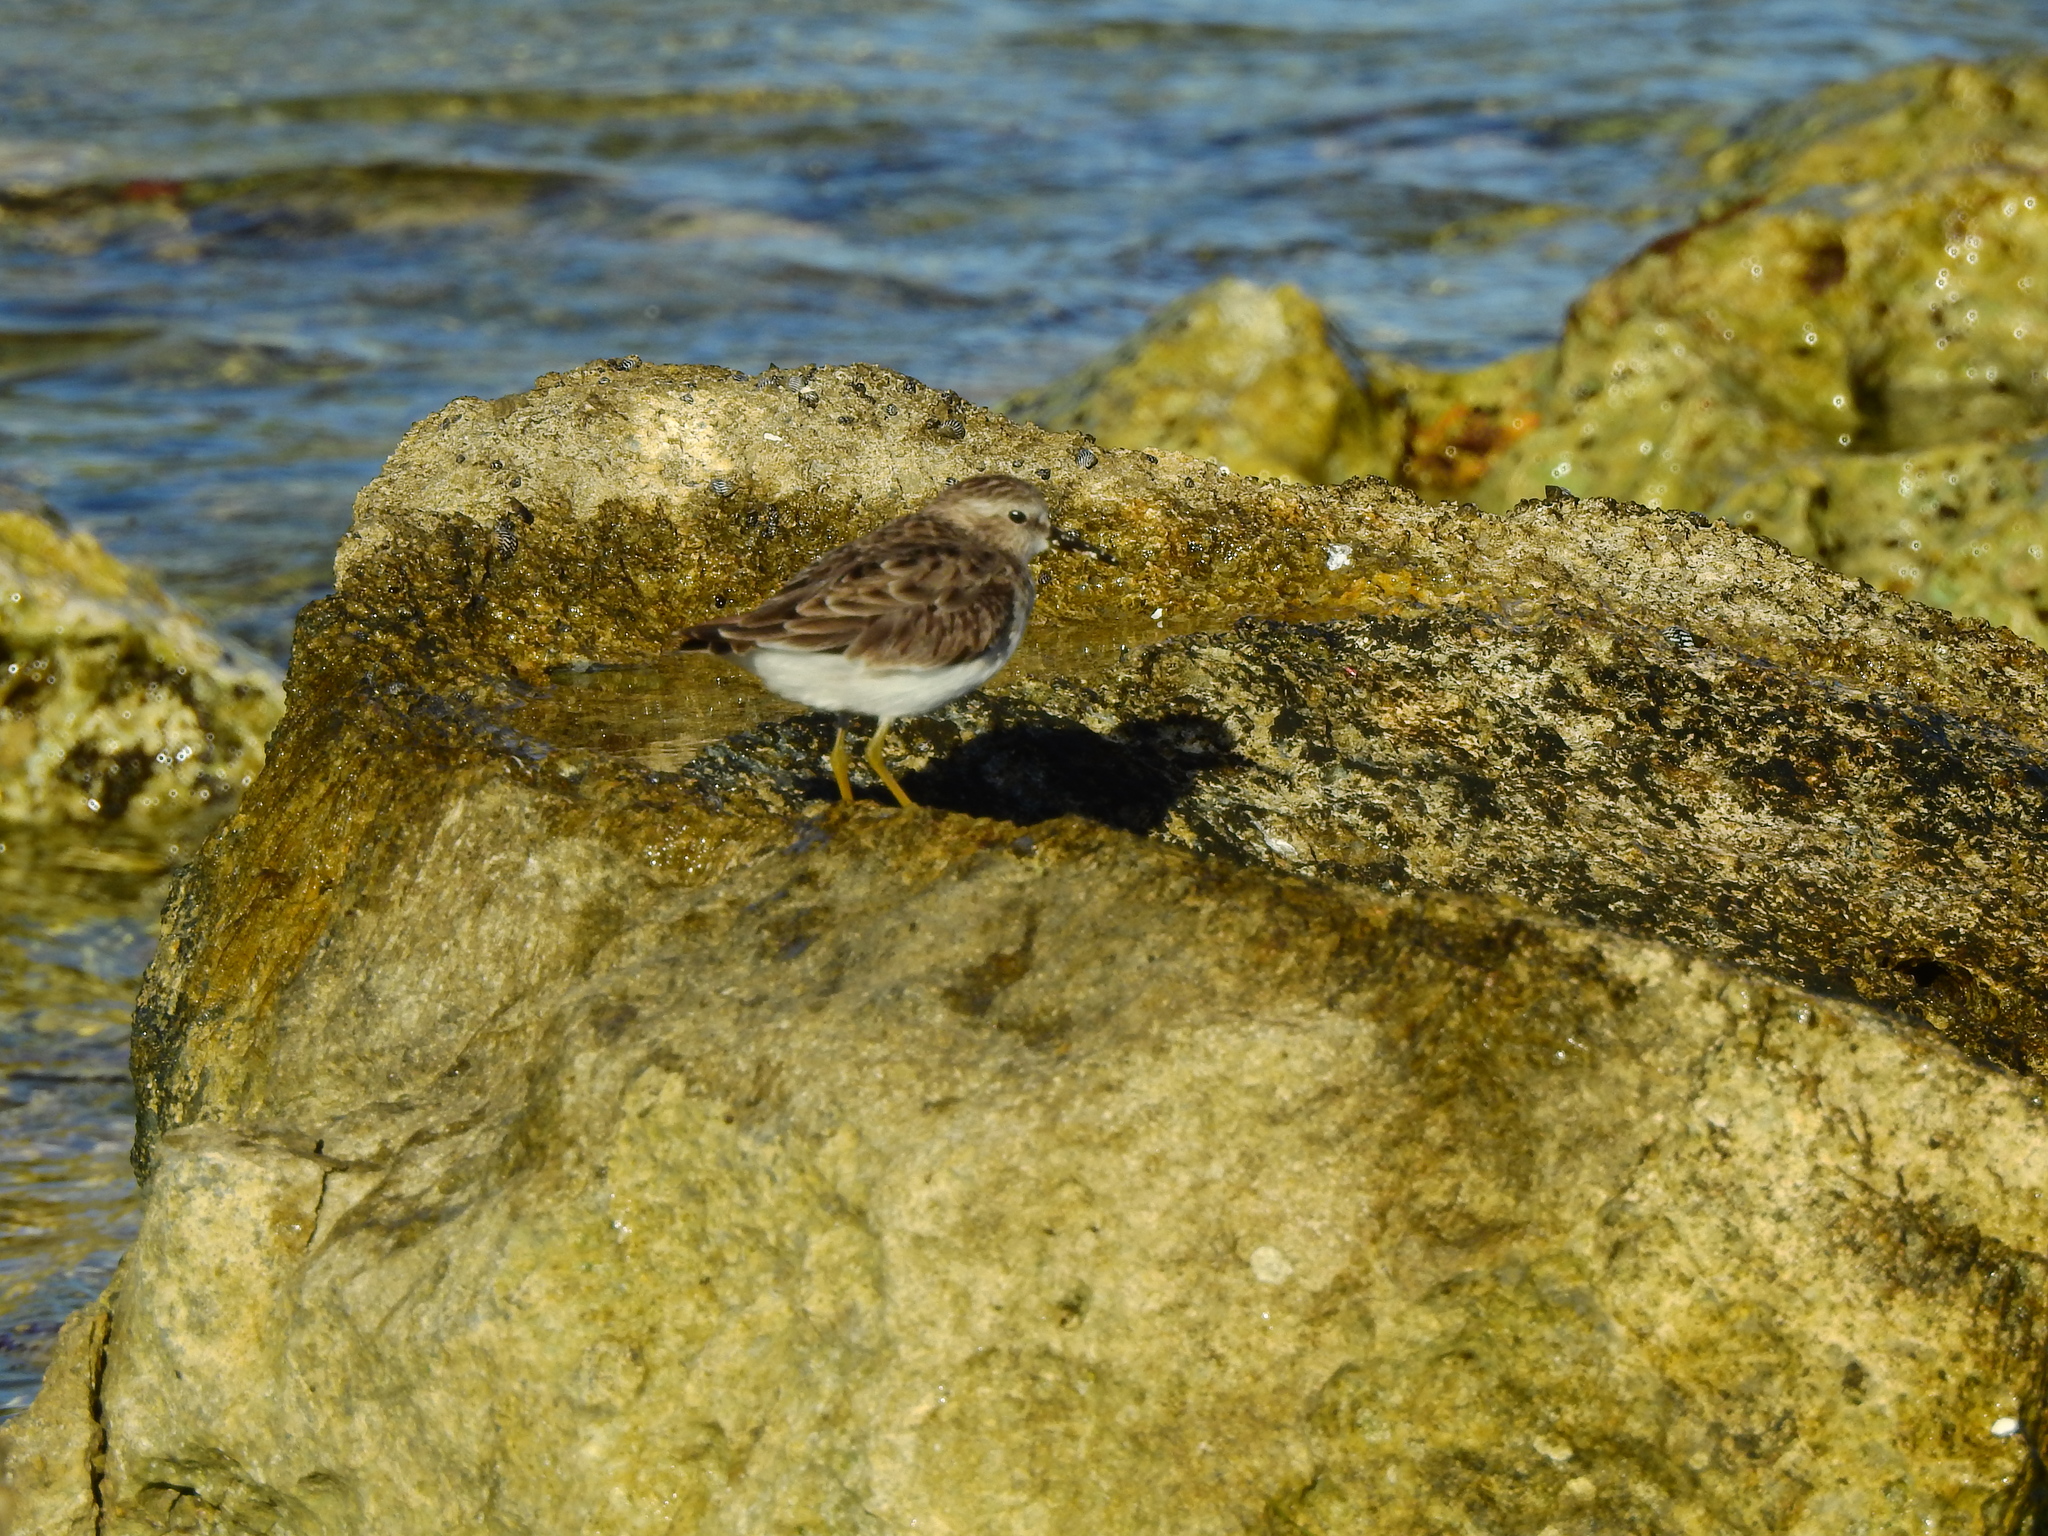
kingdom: Animalia
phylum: Chordata
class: Aves
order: Charadriiformes
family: Scolopacidae
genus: Calidris
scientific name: Calidris minutilla
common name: Least sandpiper
